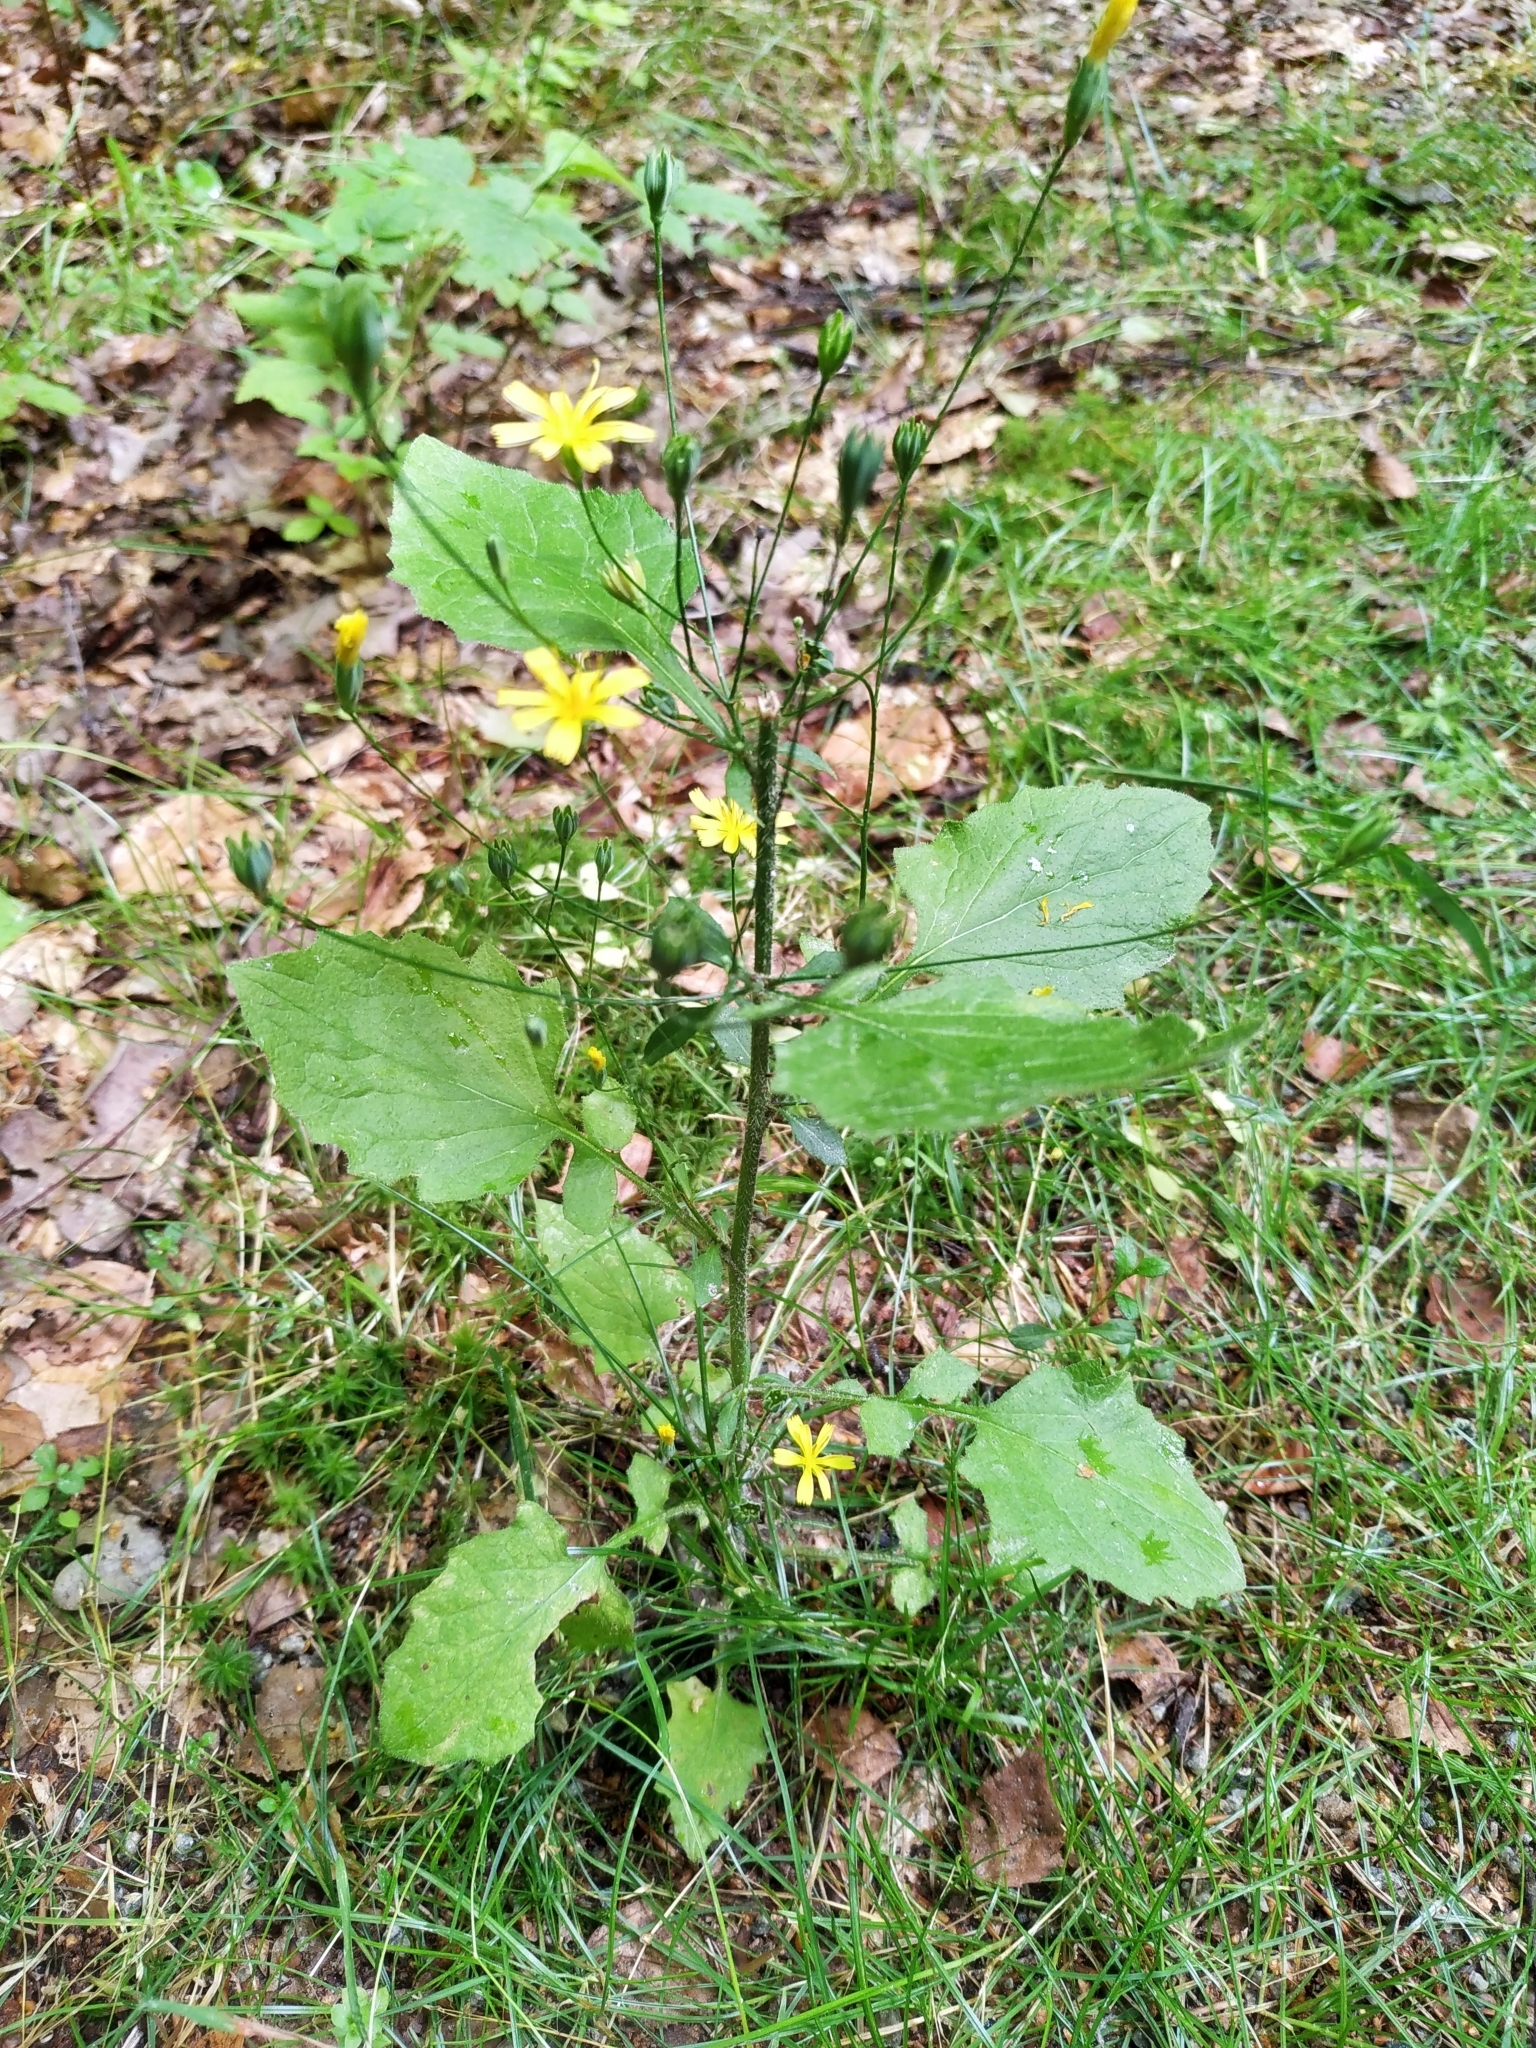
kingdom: Plantae
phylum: Tracheophyta
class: Magnoliopsida
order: Asterales
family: Asteraceae
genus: Lapsana
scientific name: Lapsana communis
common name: Nipplewort
